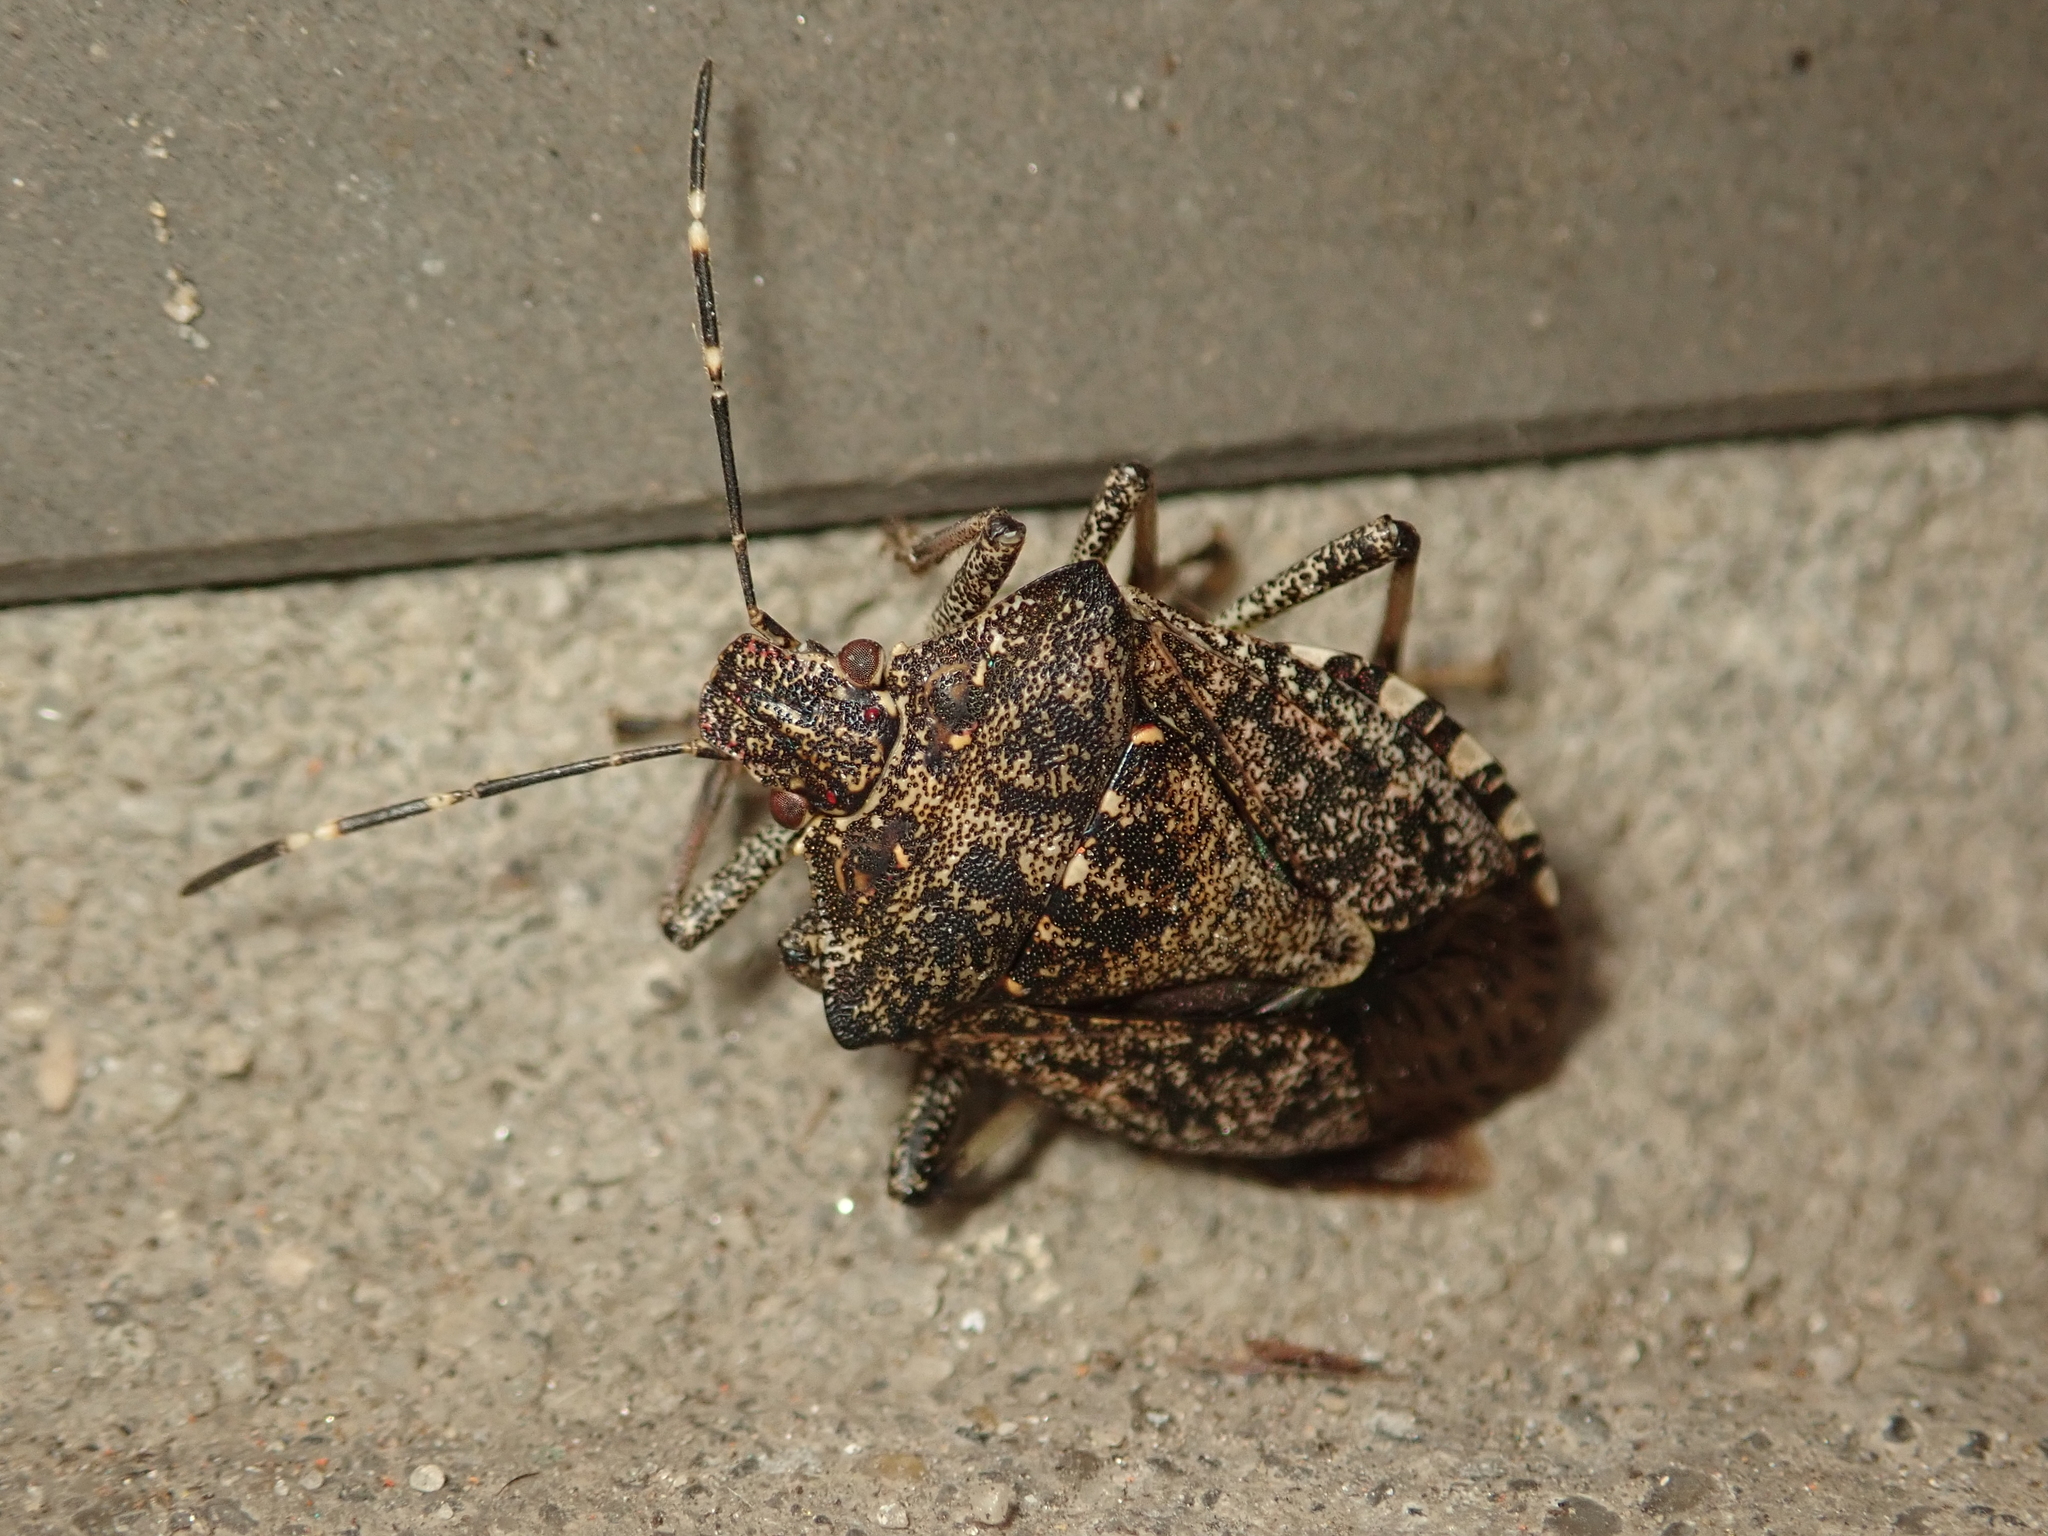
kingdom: Animalia
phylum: Arthropoda
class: Insecta
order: Hemiptera
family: Pentatomidae
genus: Halyomorpha
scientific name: Halyomorpha halys
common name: Brown marmorated stink bug
